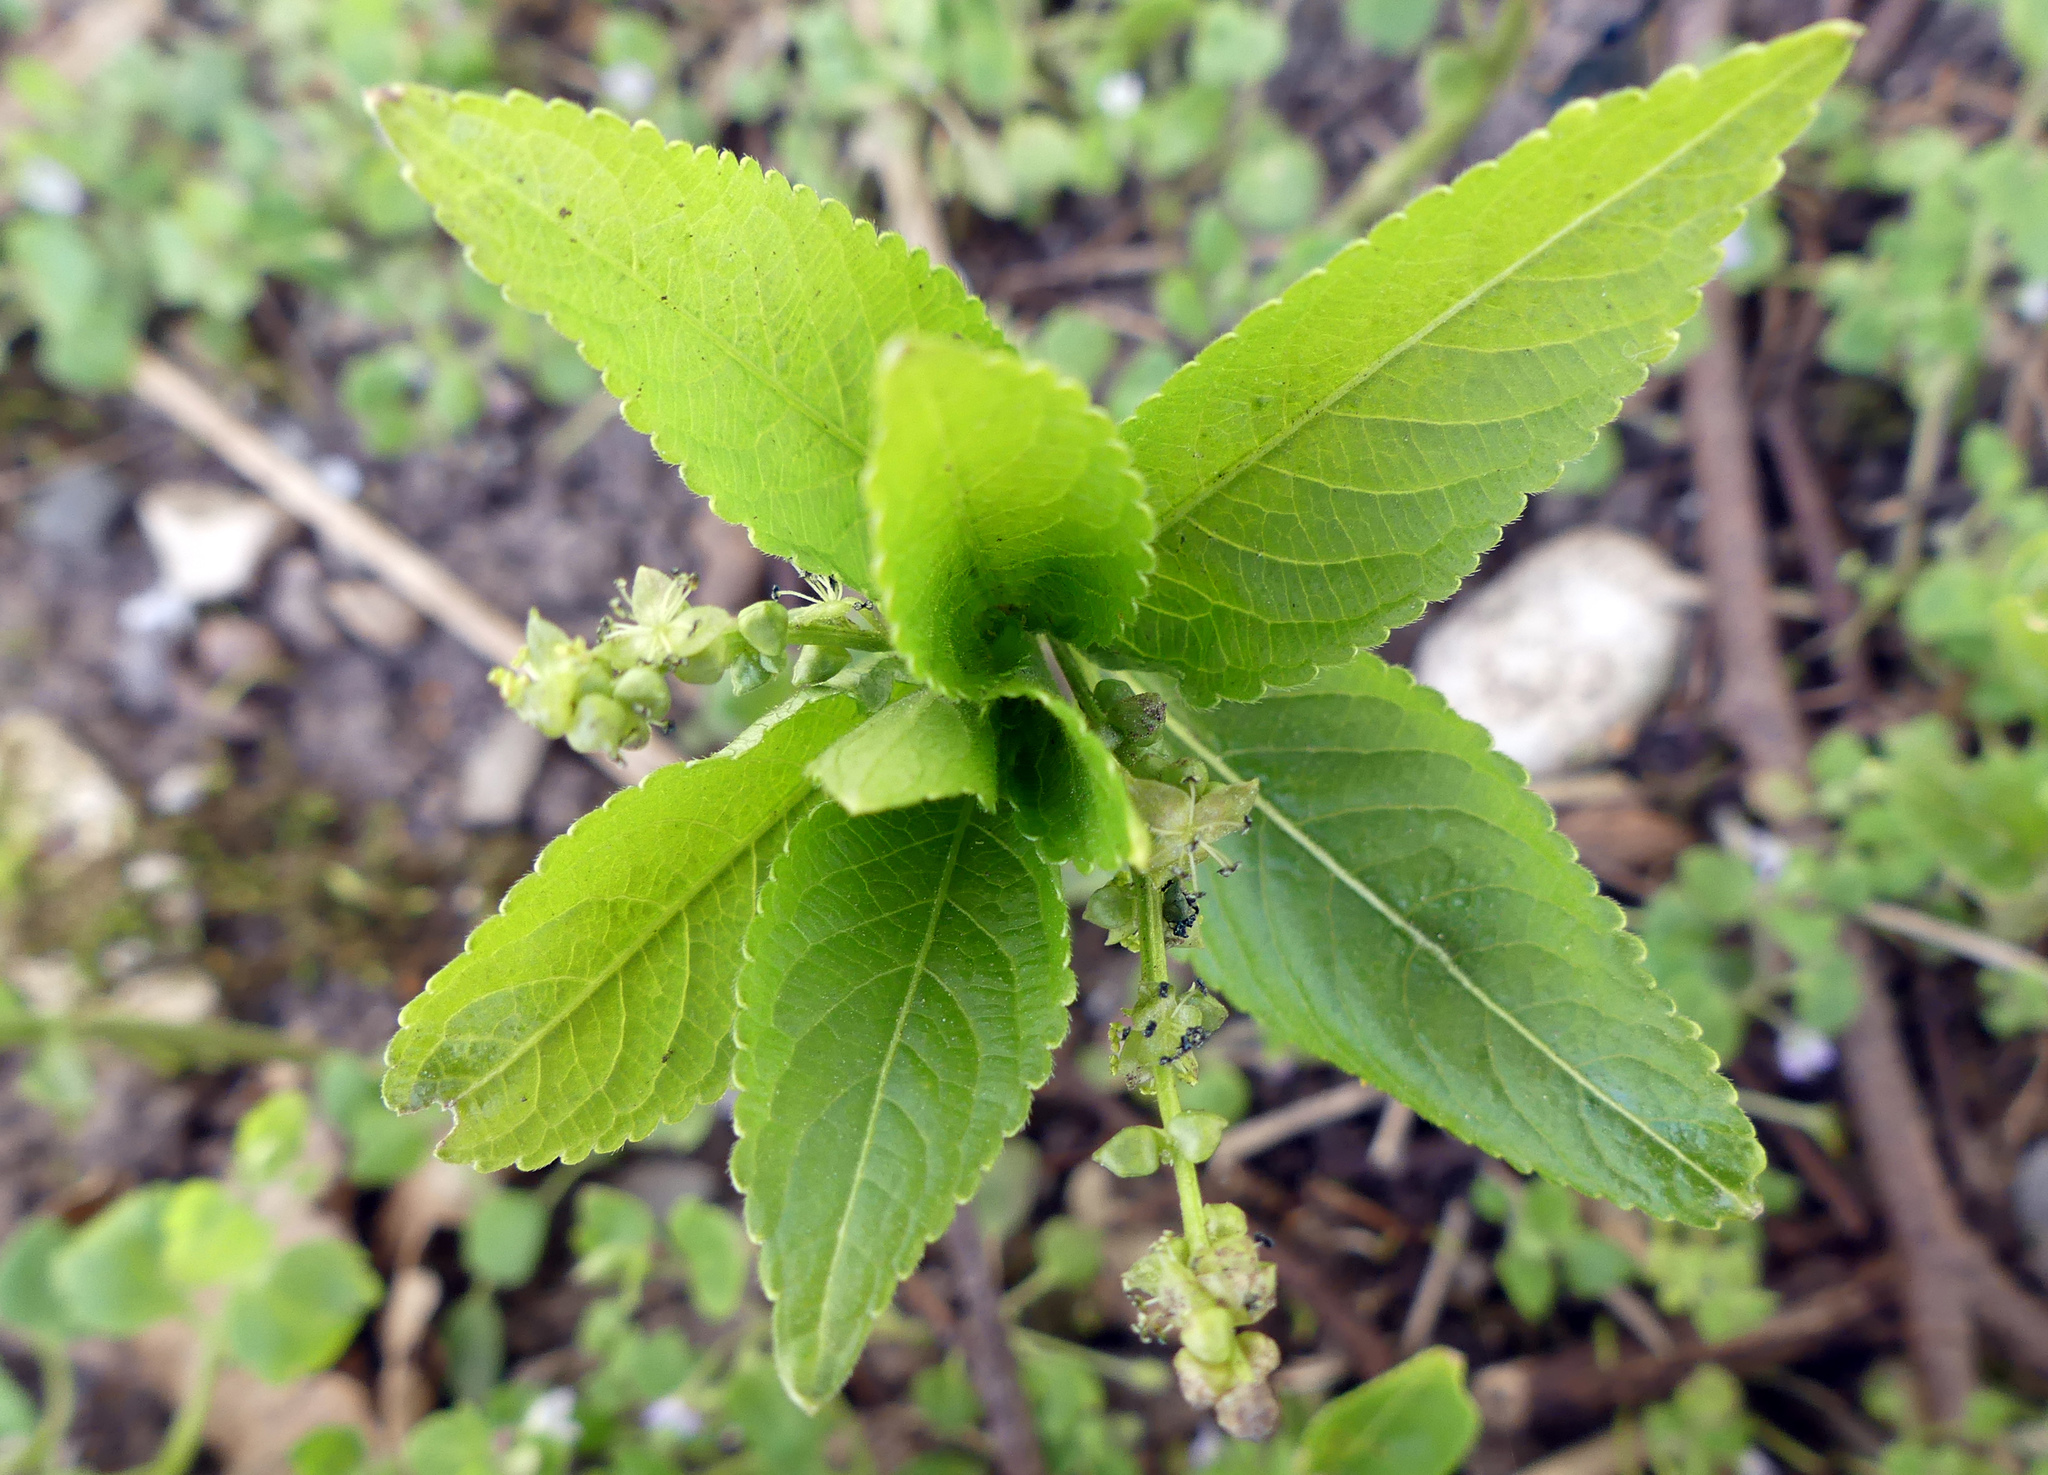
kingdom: Plantae
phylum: Tracheophyta
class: Magnoliopsida
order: Malpighiales
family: Euphorbiaceae
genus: Mercurialis
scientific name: Mercurialis perennis
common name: Dog mercury
